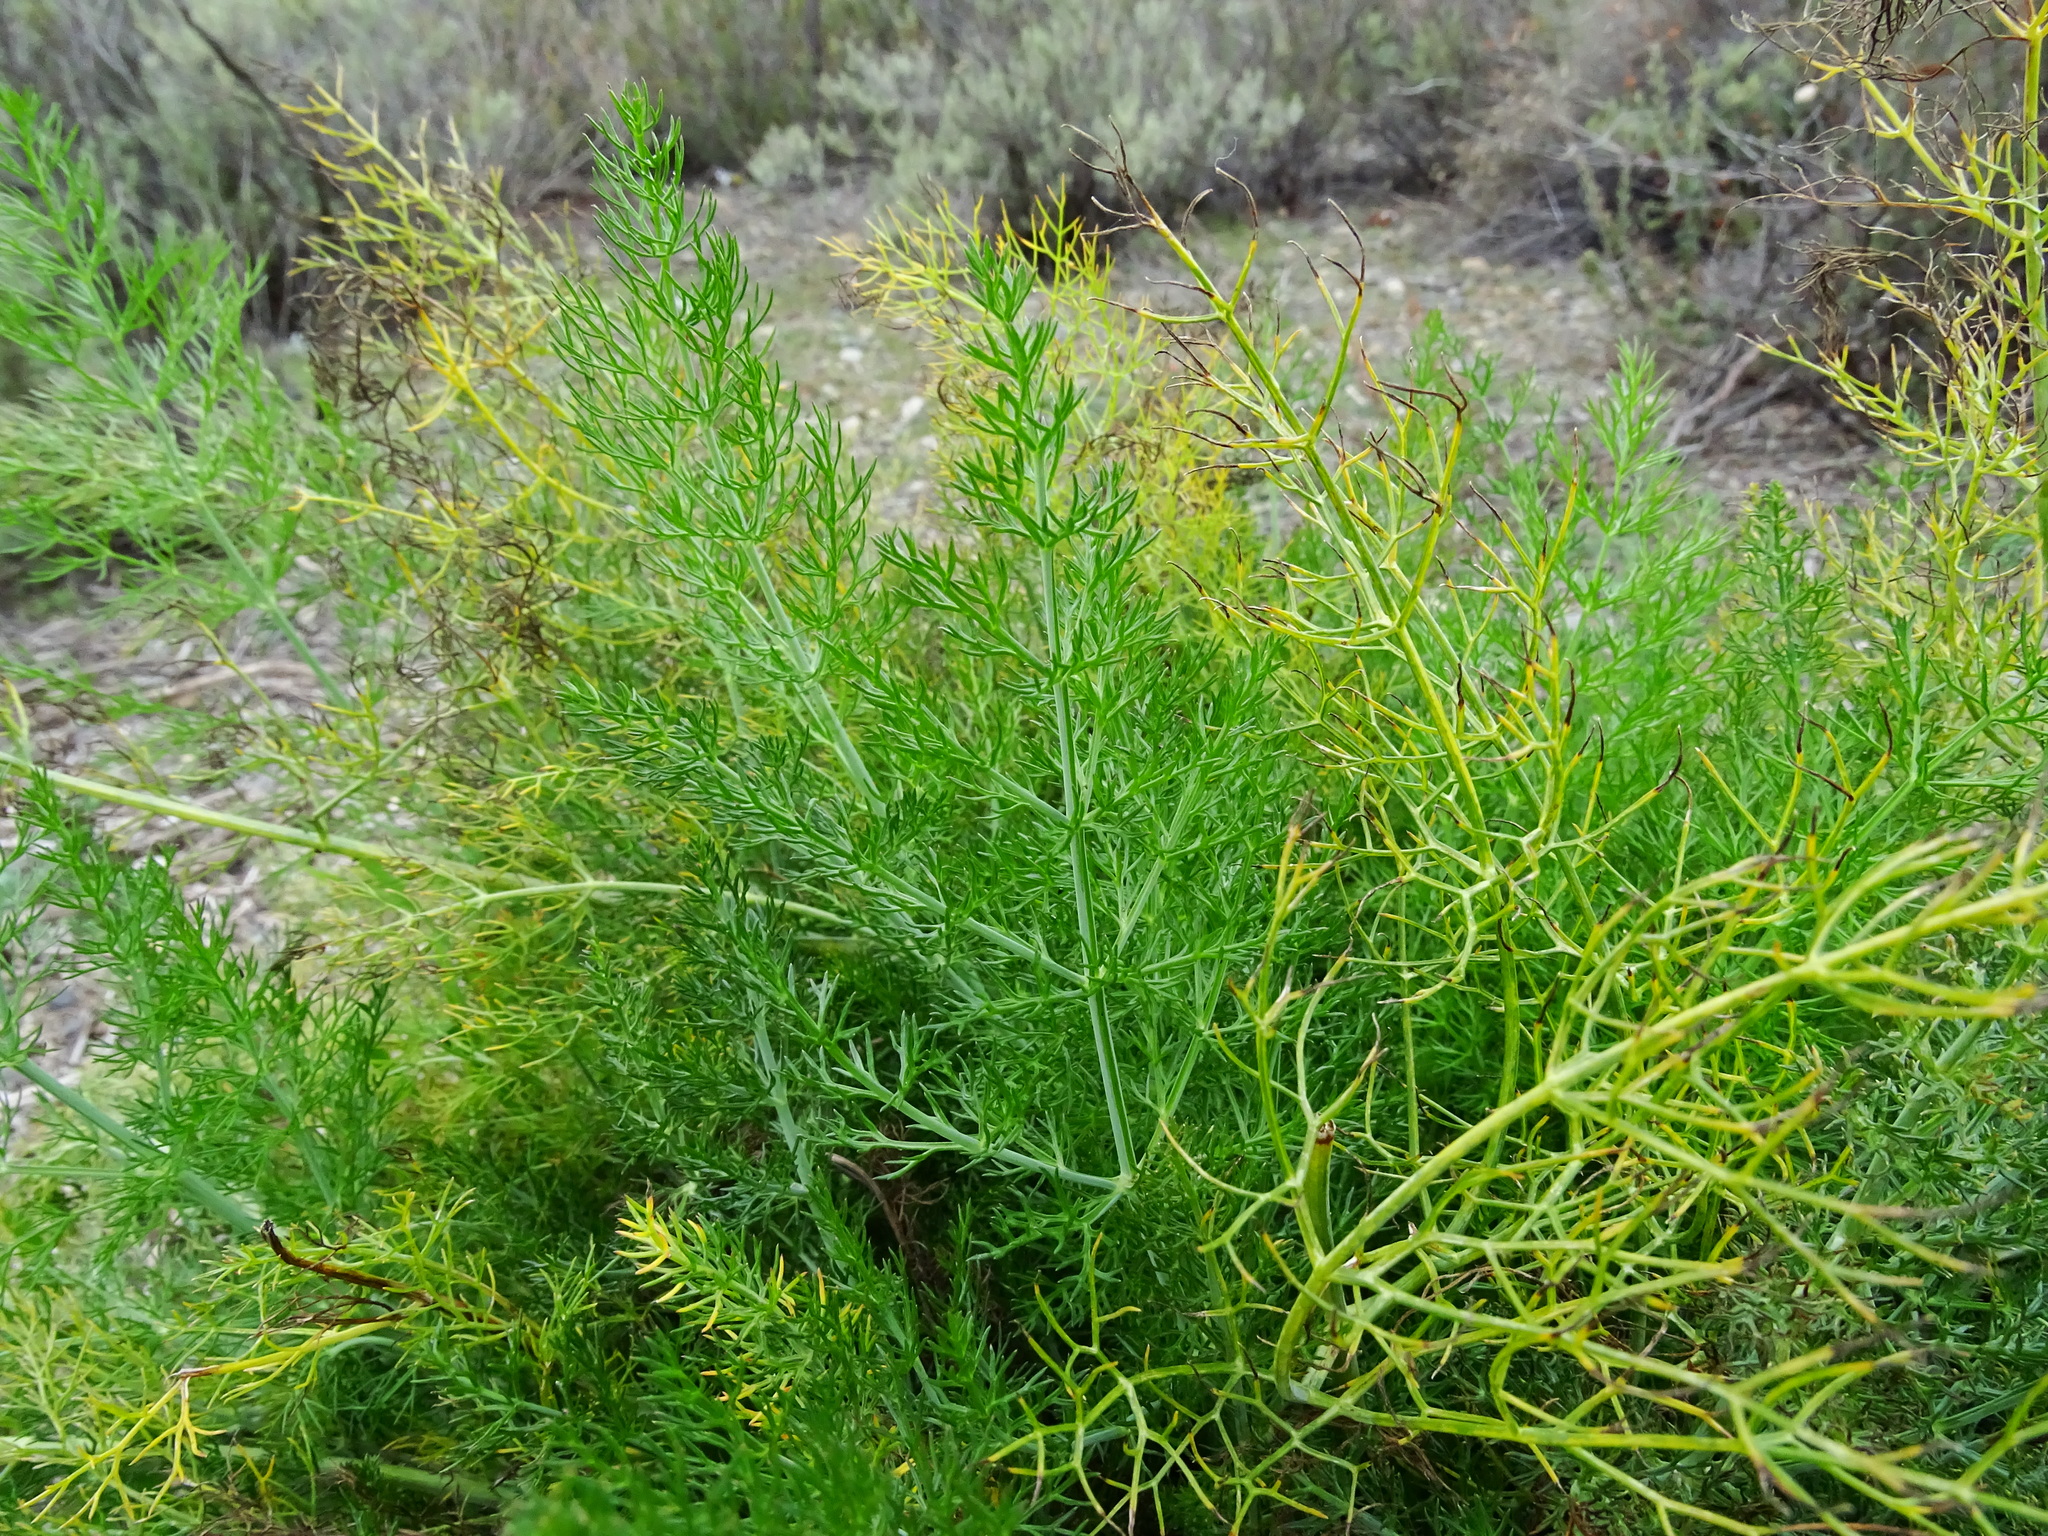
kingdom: Plantae
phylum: Tracheophyta
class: Magnoliopsida
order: Apiales
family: Apiaceae
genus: Foeniculum
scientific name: Foeniculum vulgare
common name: Fennel
